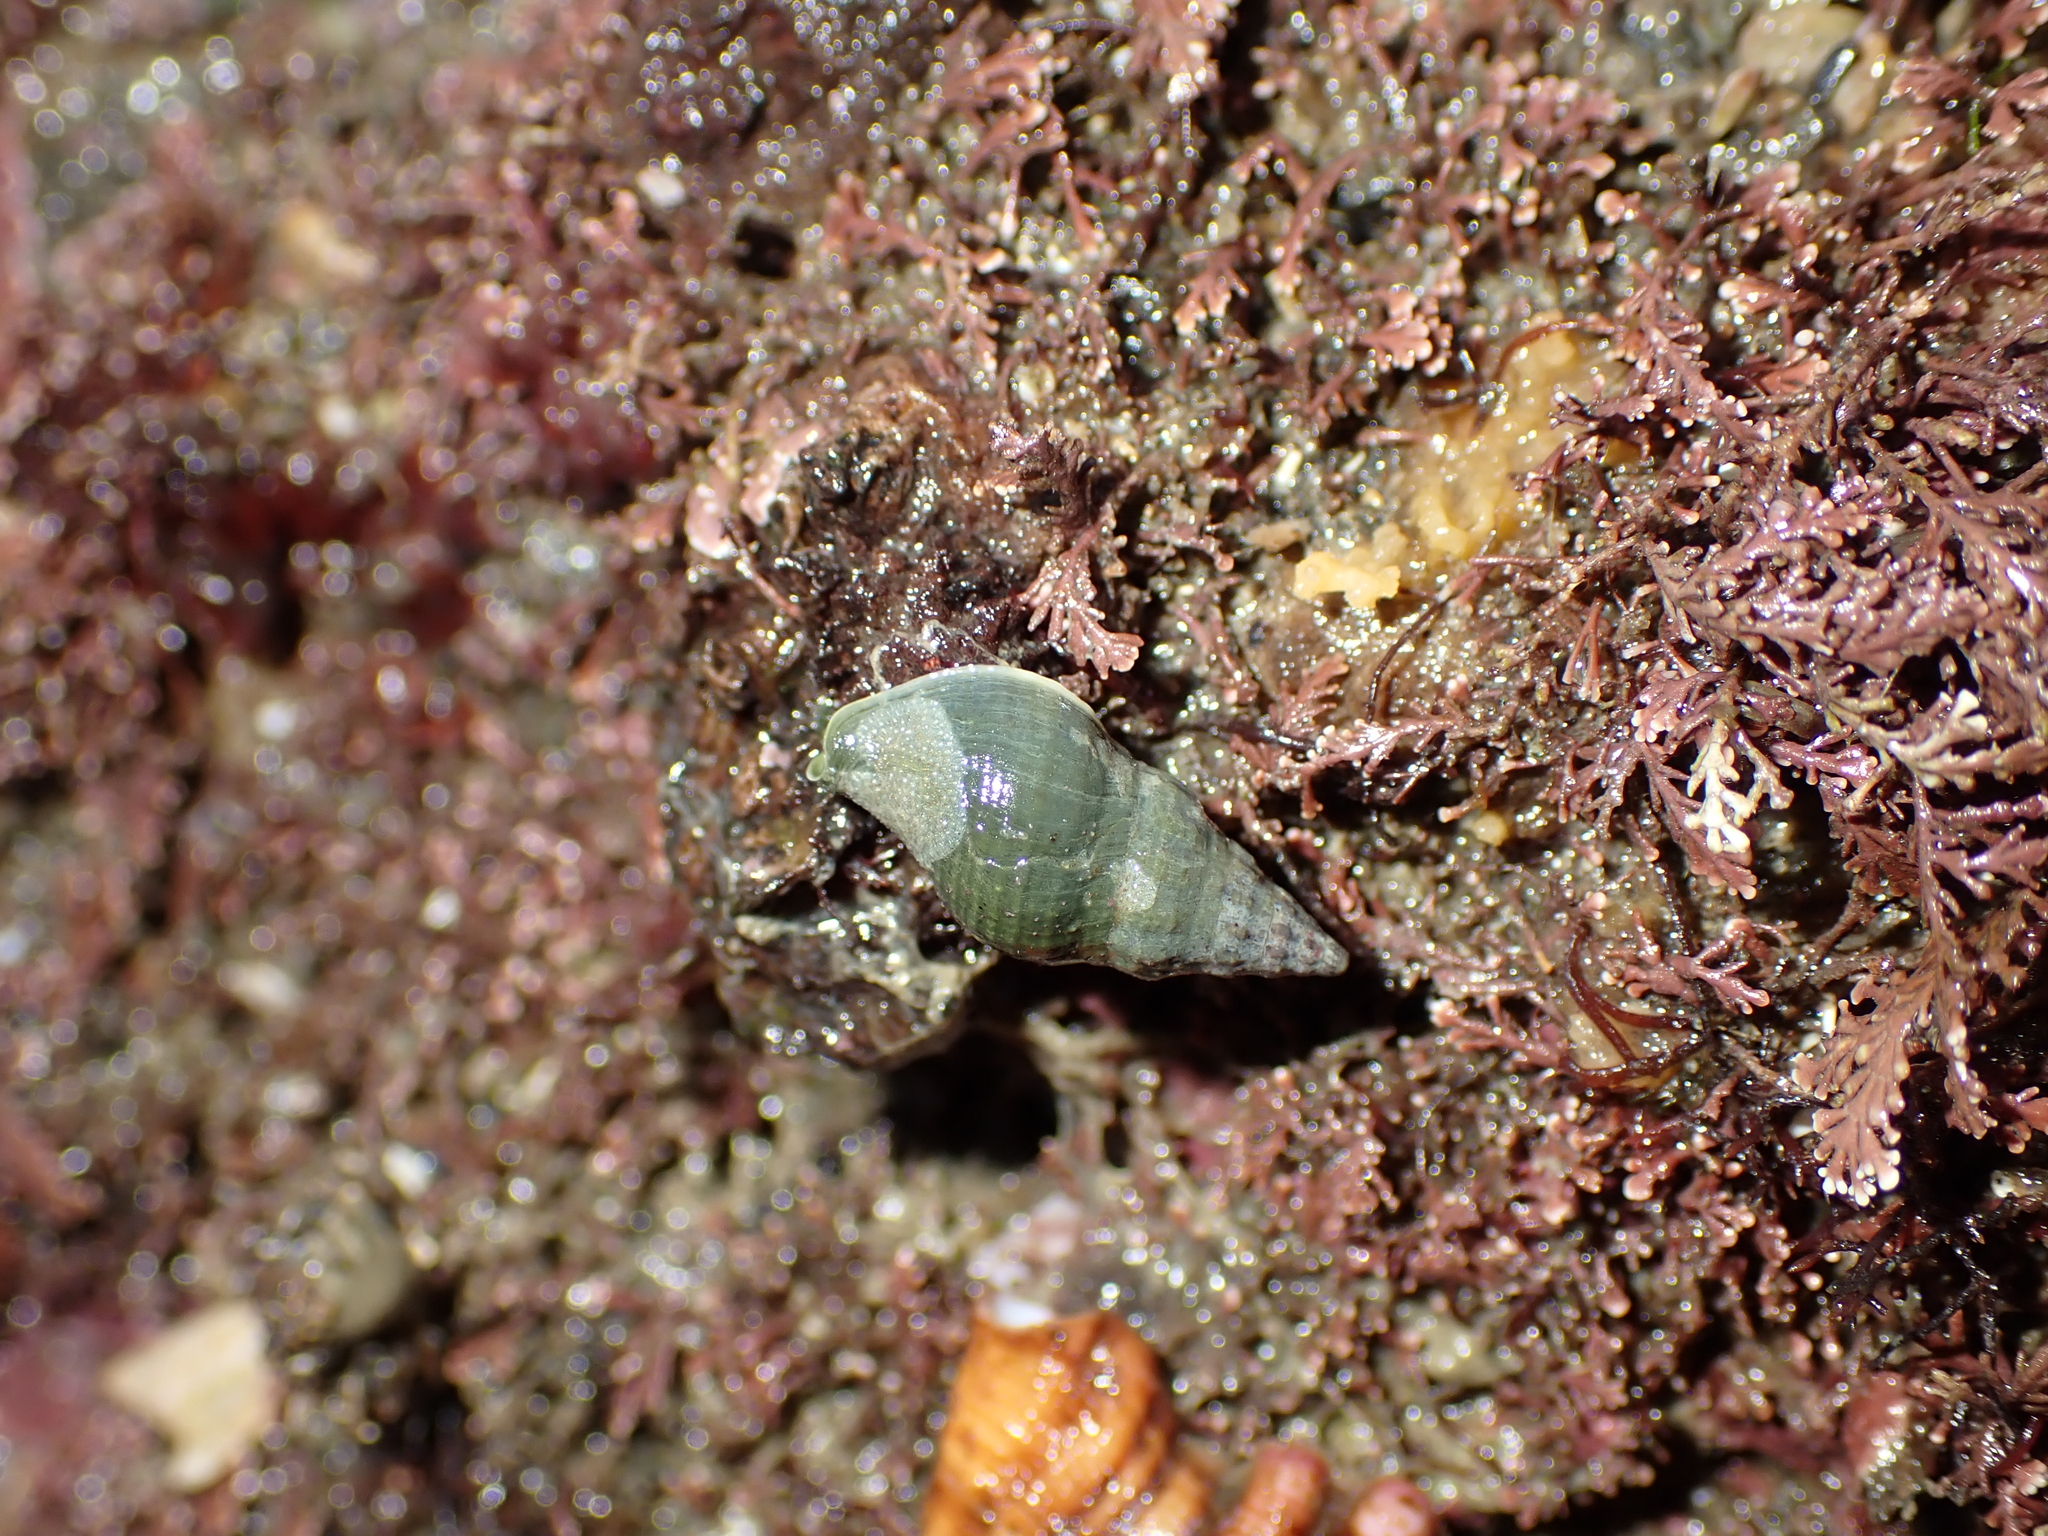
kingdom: Animalia
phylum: Mollusca
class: Gastropoda
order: Neogastropoda
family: Tudiclidae
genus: Buccinulum
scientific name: Buccinulum vittatum
